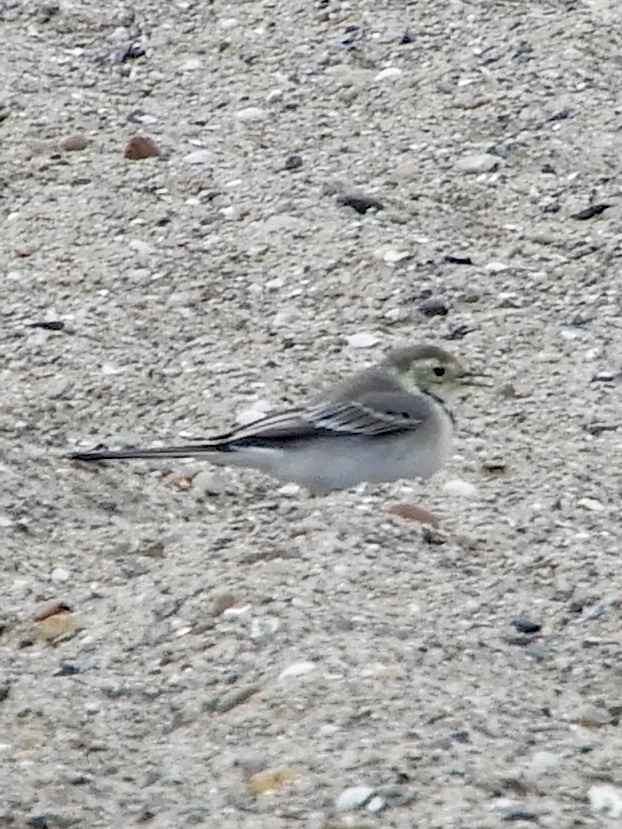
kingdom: Animalia
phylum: Chordata
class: Aves
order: Passeriformes
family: Motacillidae
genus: Motacilla
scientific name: Motacilla alba
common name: White wagtail
